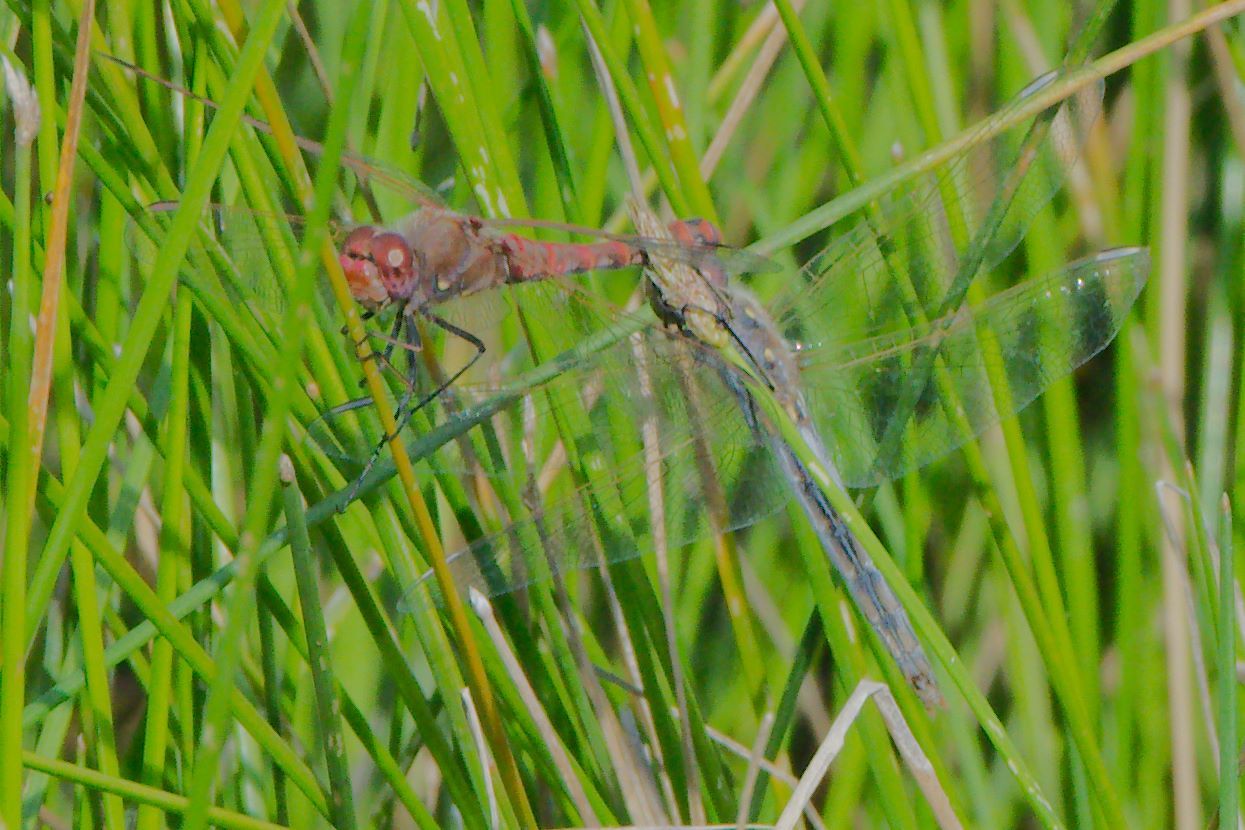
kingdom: Animalia
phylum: Arthropoda
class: Insecta
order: Odonata
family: Libellulidae
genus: Sympetrum
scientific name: Sympetrum corruptum
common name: Variegated meadowhawk
